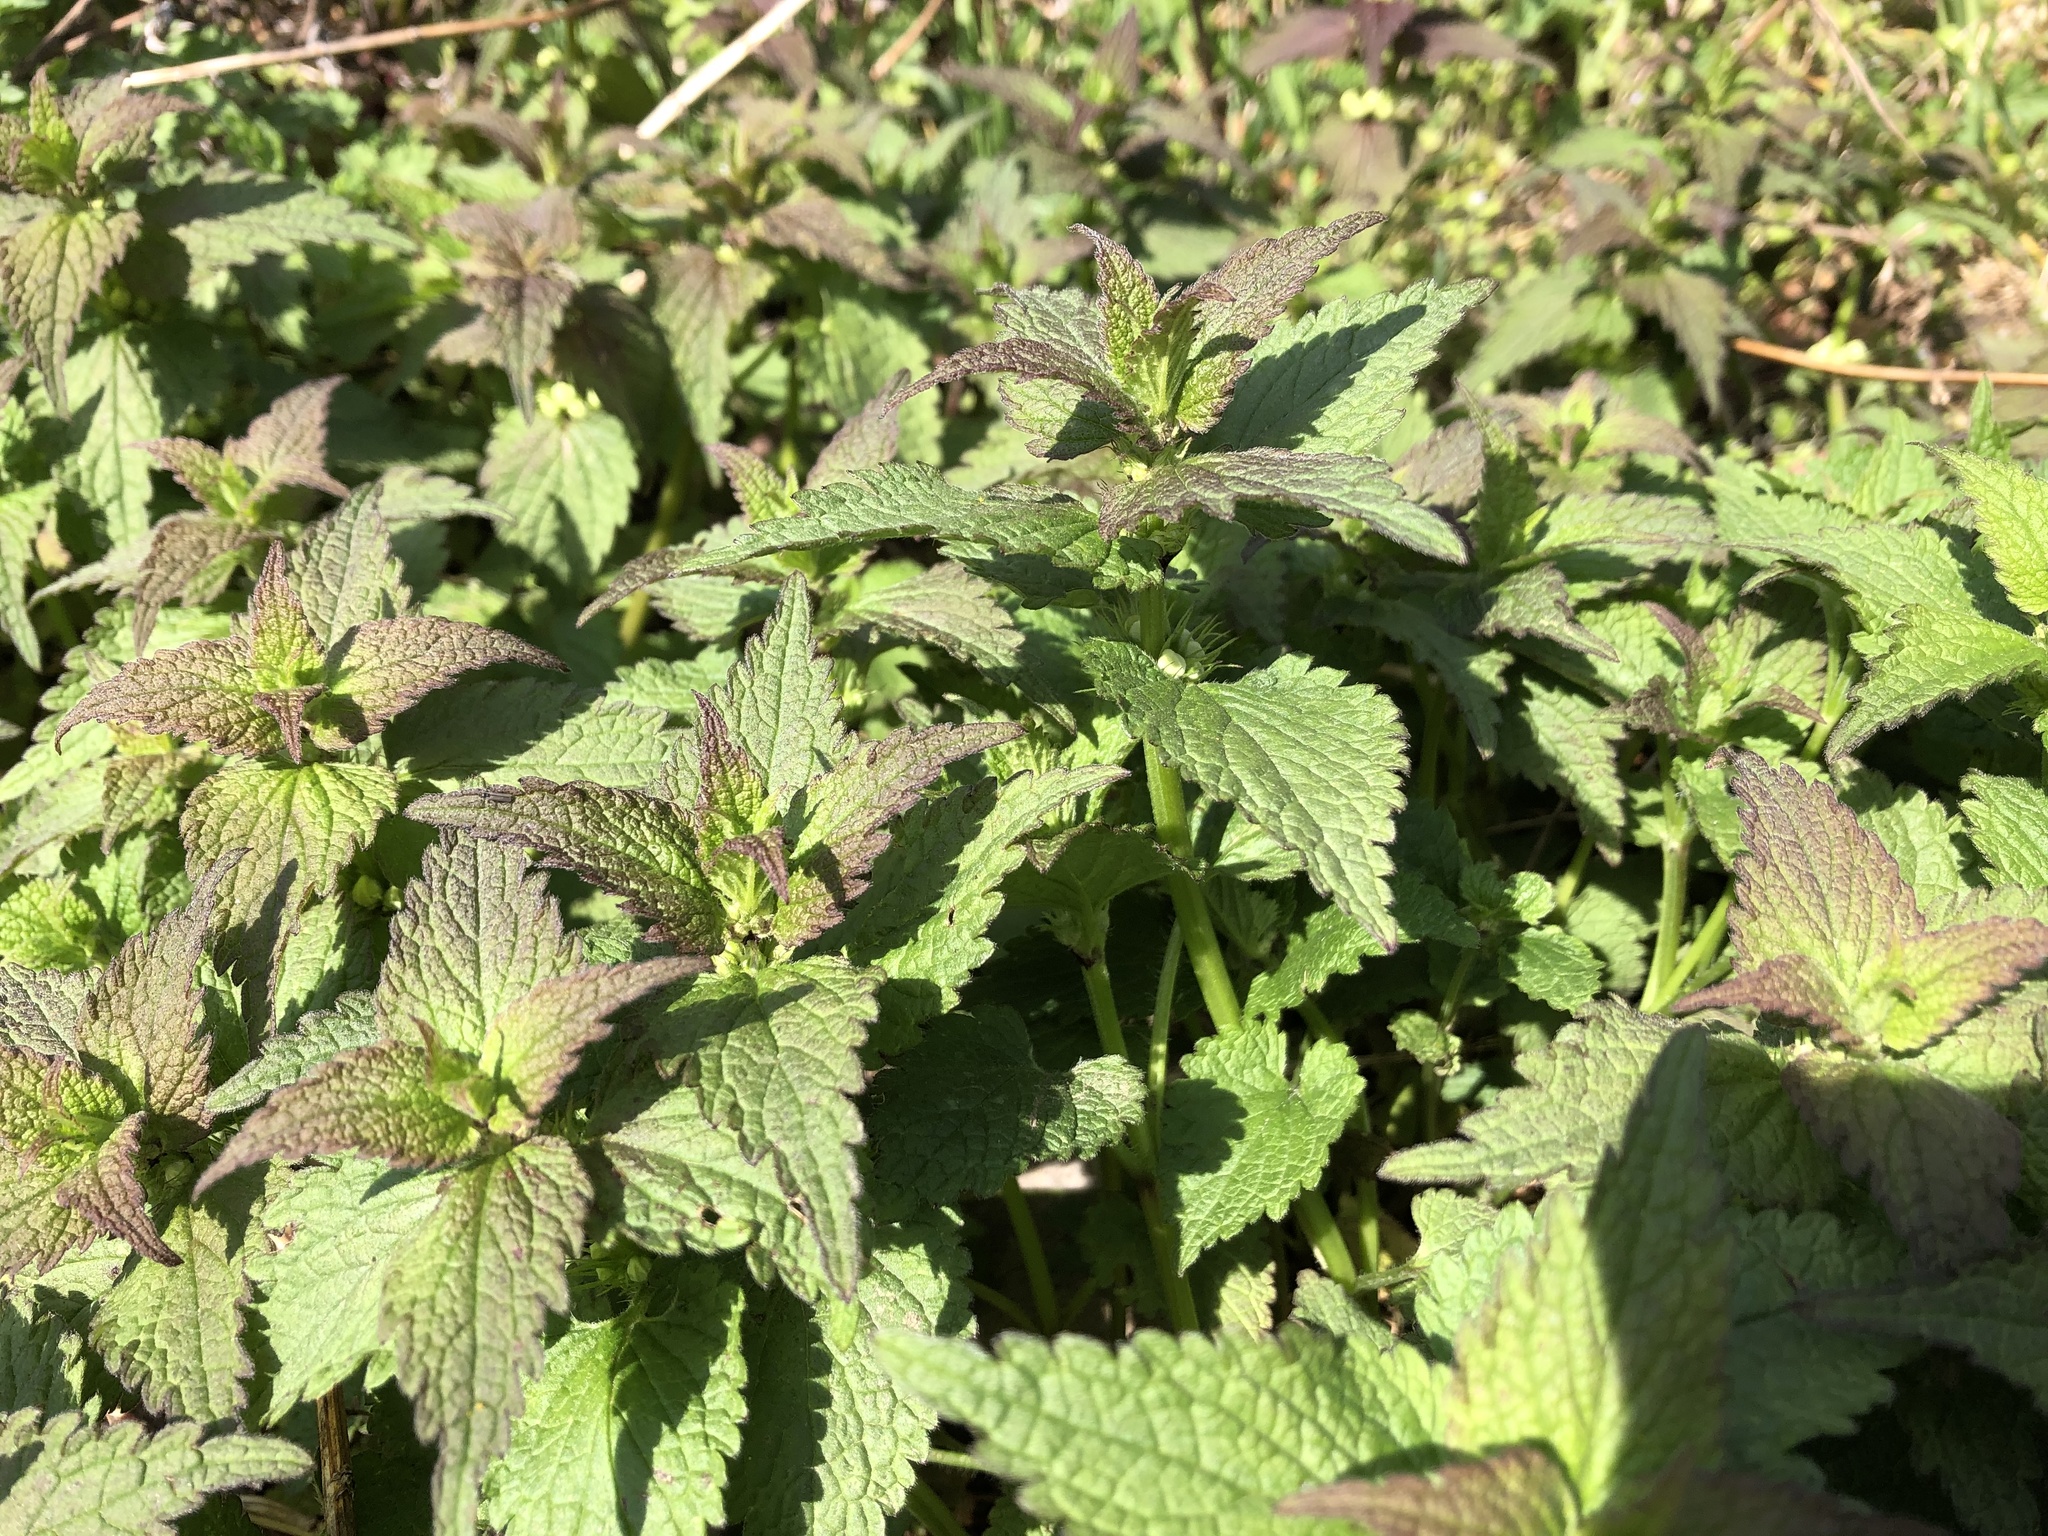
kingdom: Plantae
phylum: Tracheophyta
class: Magnoliopsida
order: Lamiales
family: Lamiaceae
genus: Lamium
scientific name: Lamium album
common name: White dead-nettle
